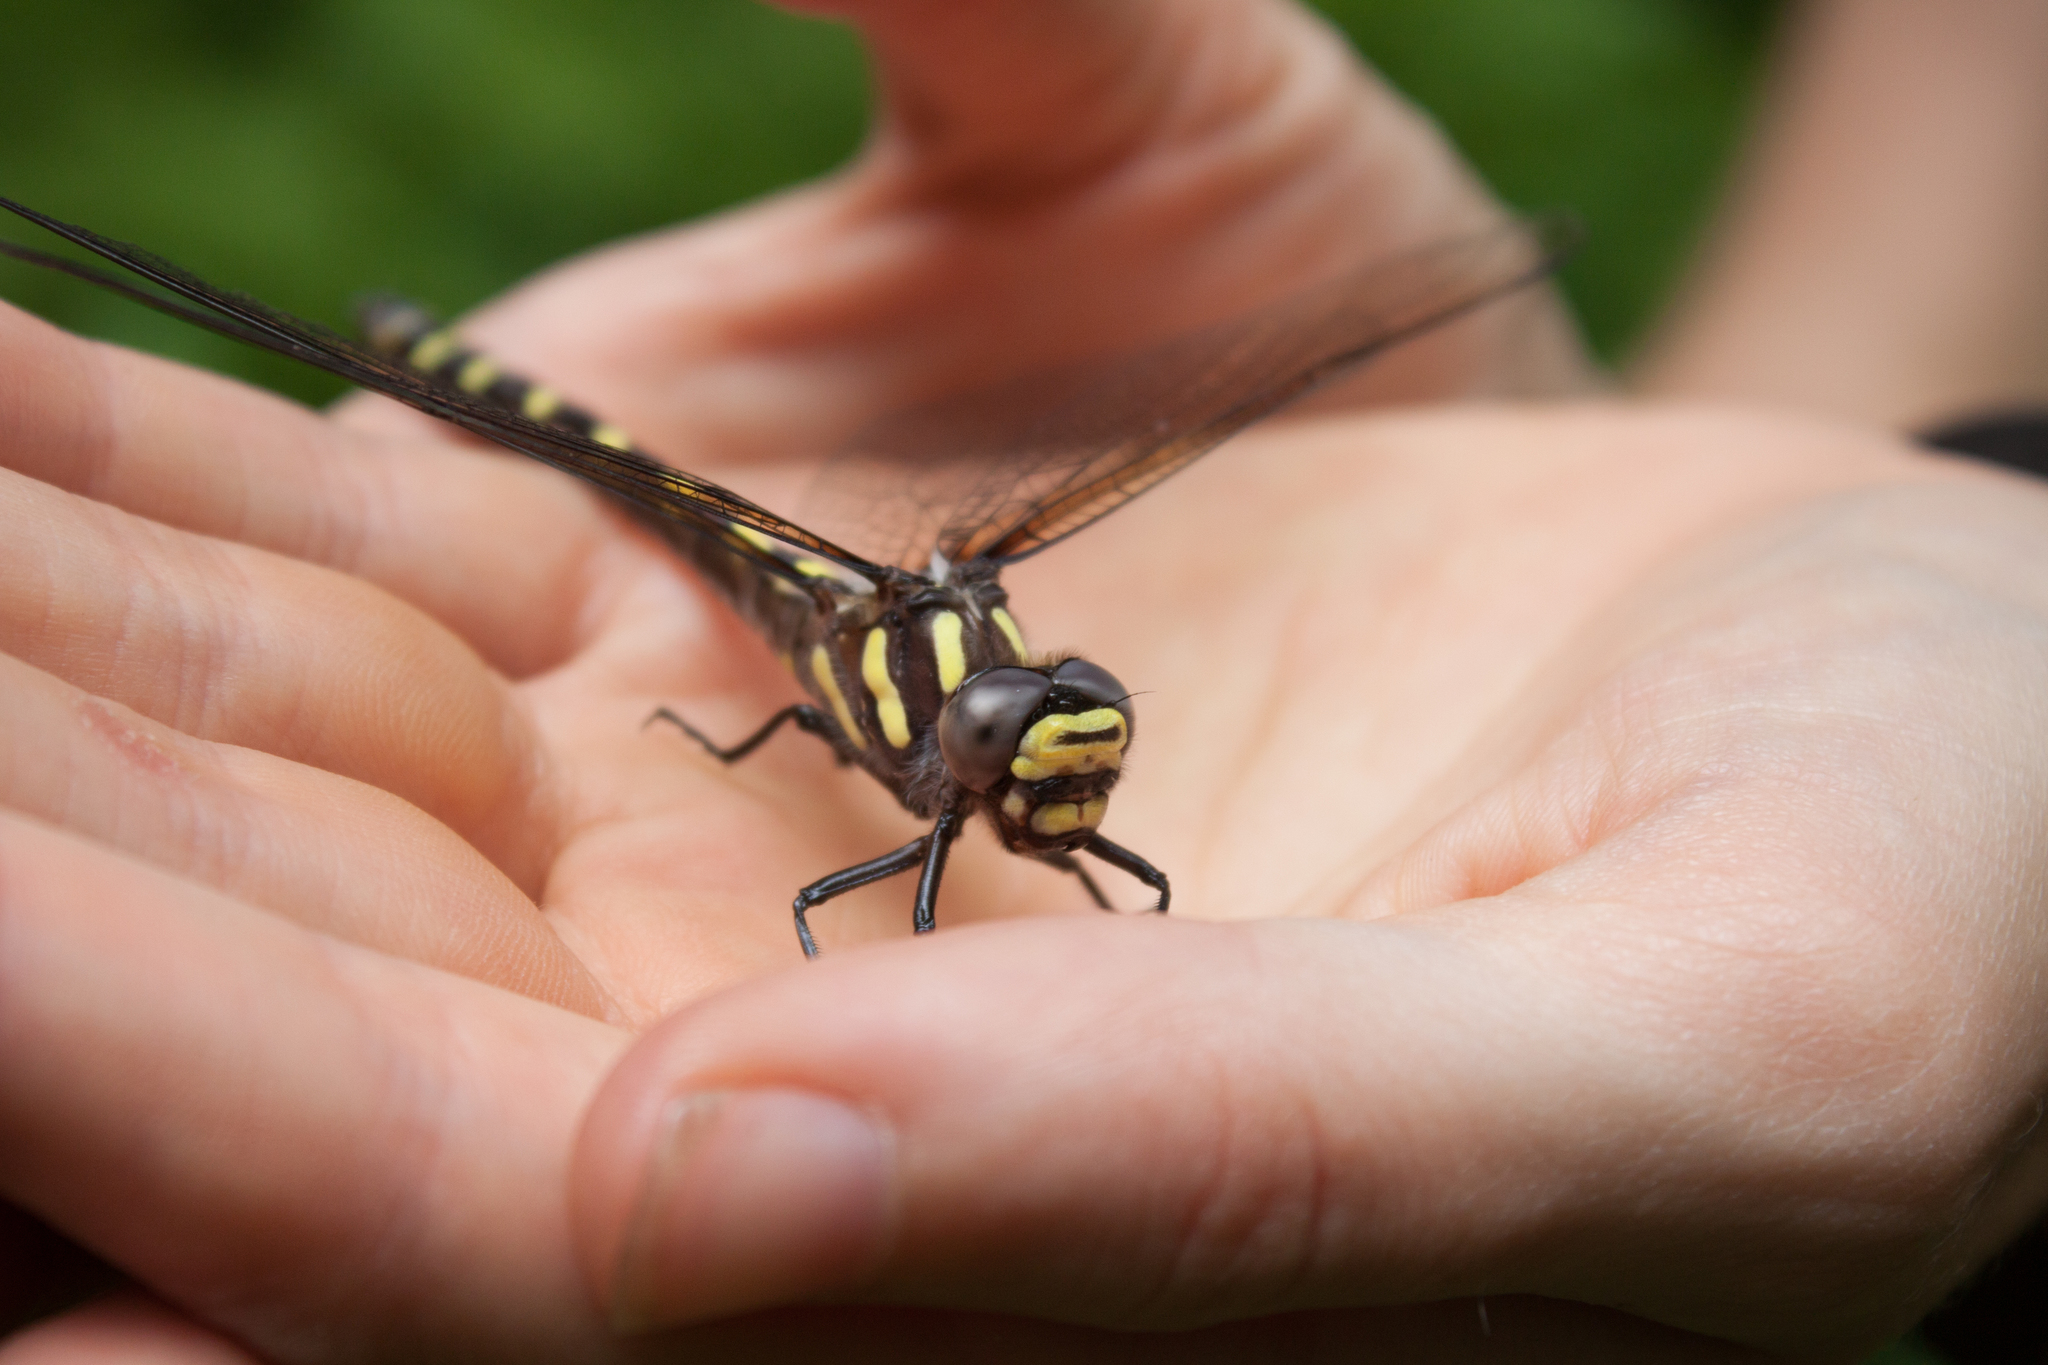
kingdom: Animalia
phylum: Arthropoda
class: Insecta
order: Odonata
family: Cordulegastridae
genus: Cordulegaster
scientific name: Cordulegaster dorsalis
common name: Pacific spiketail
